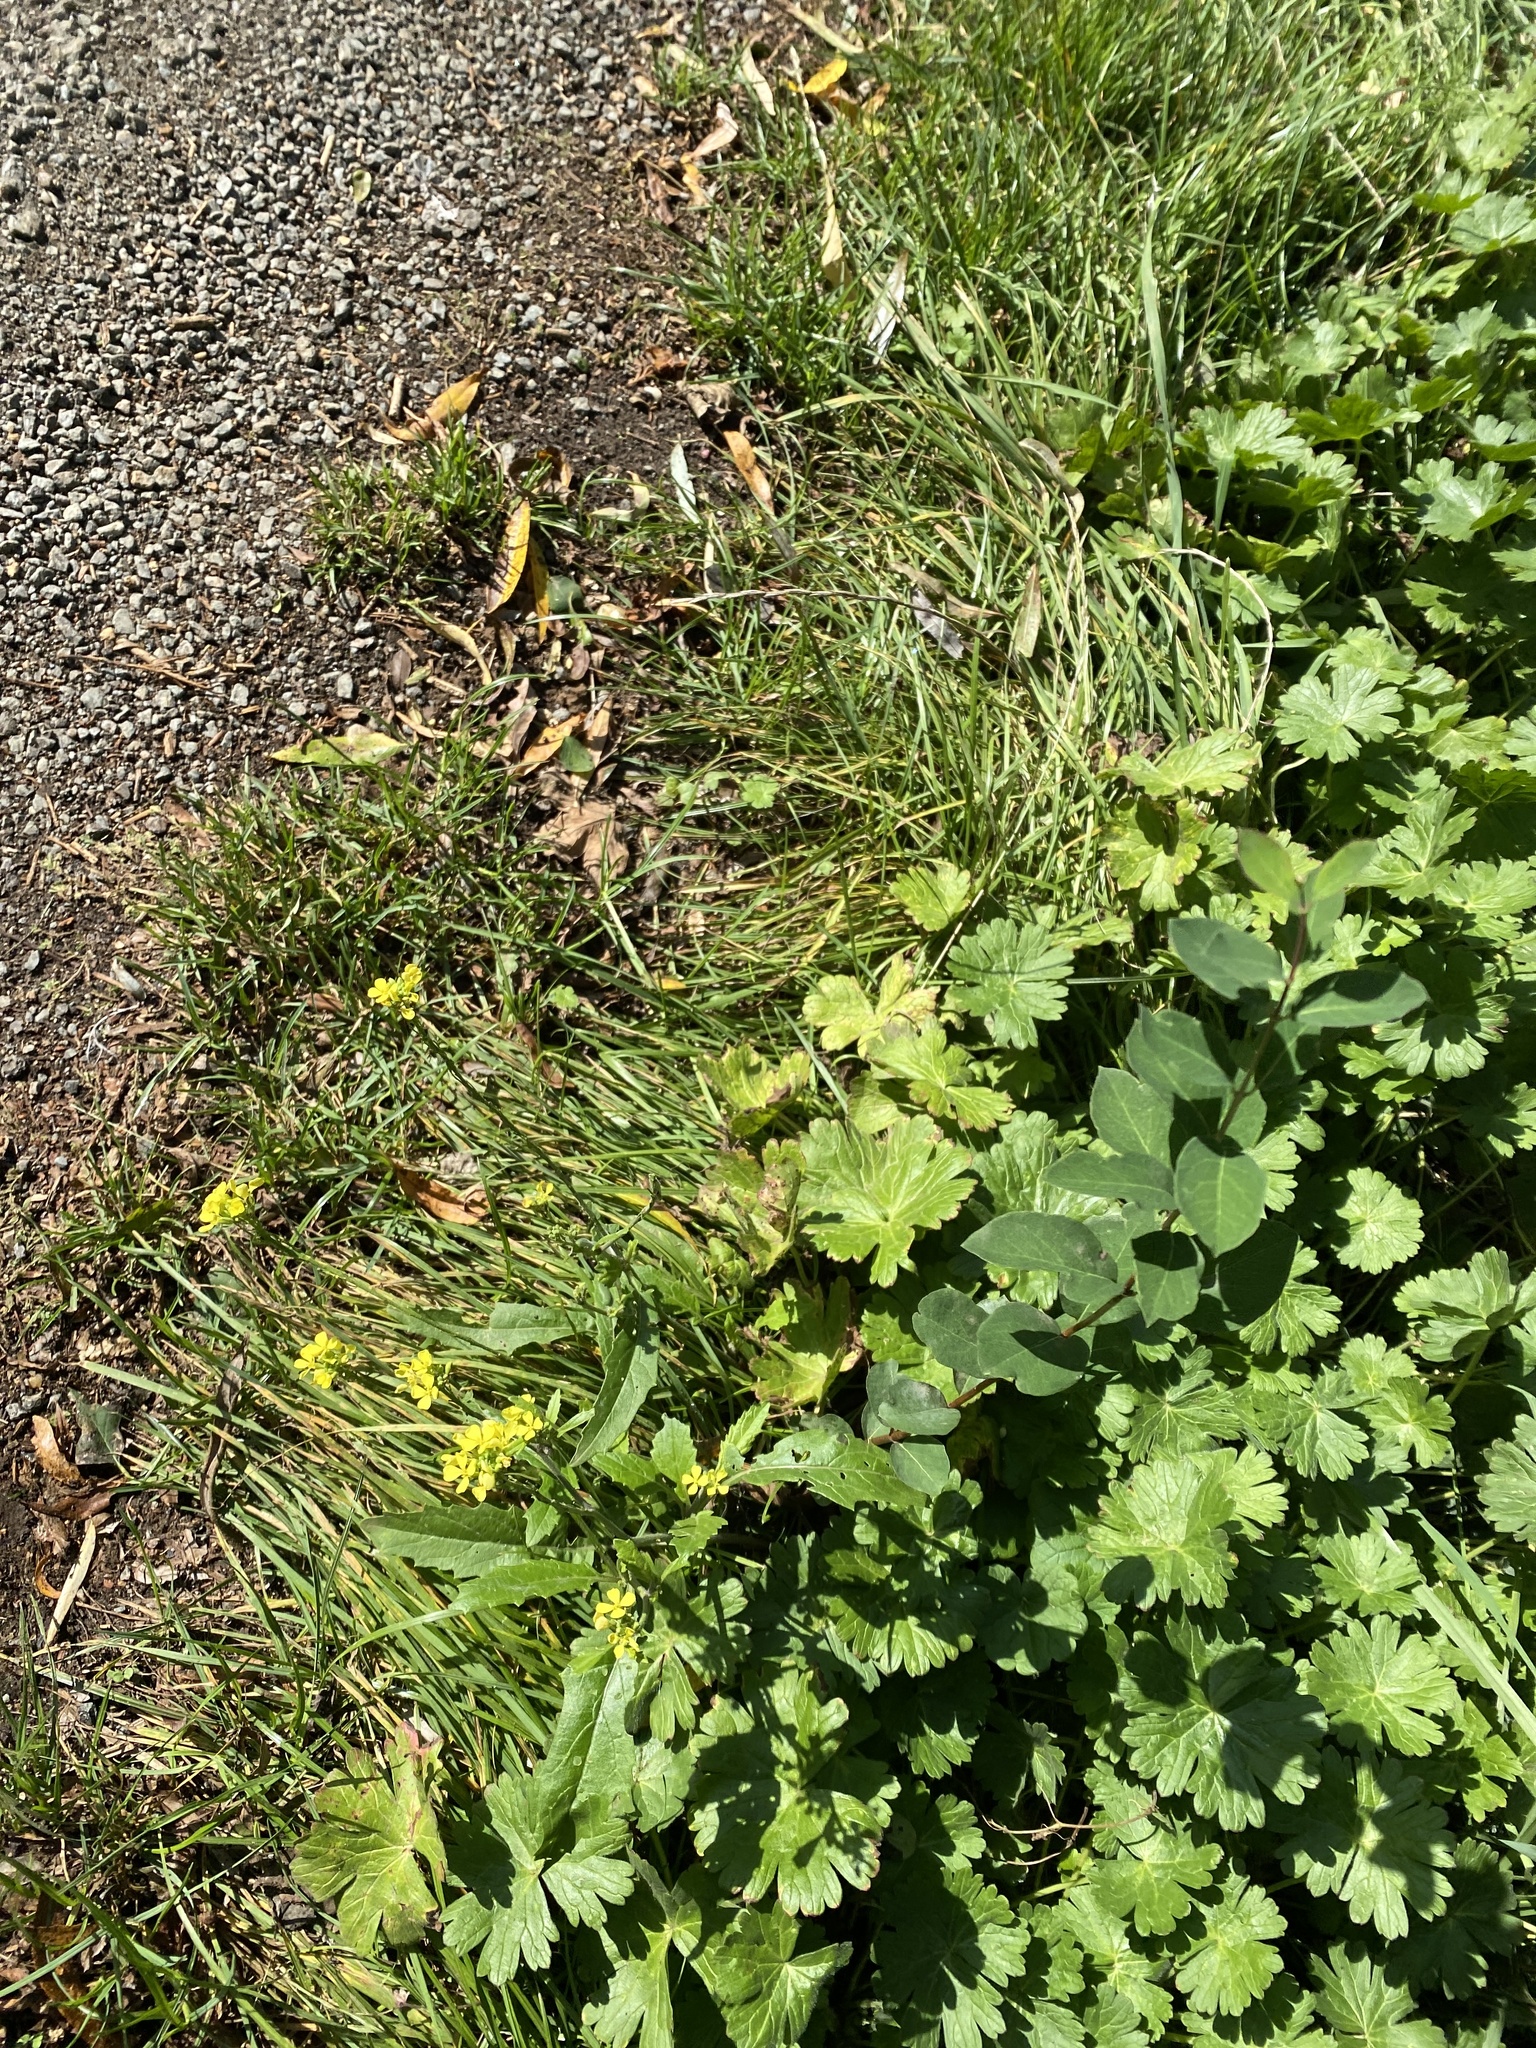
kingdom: Plantae
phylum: Tracheophyta
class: Magnoliopsida
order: Brassicales
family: Brassicaceae
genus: Sisymbrium
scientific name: Sisymbrium officinale
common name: Hedge mustard
